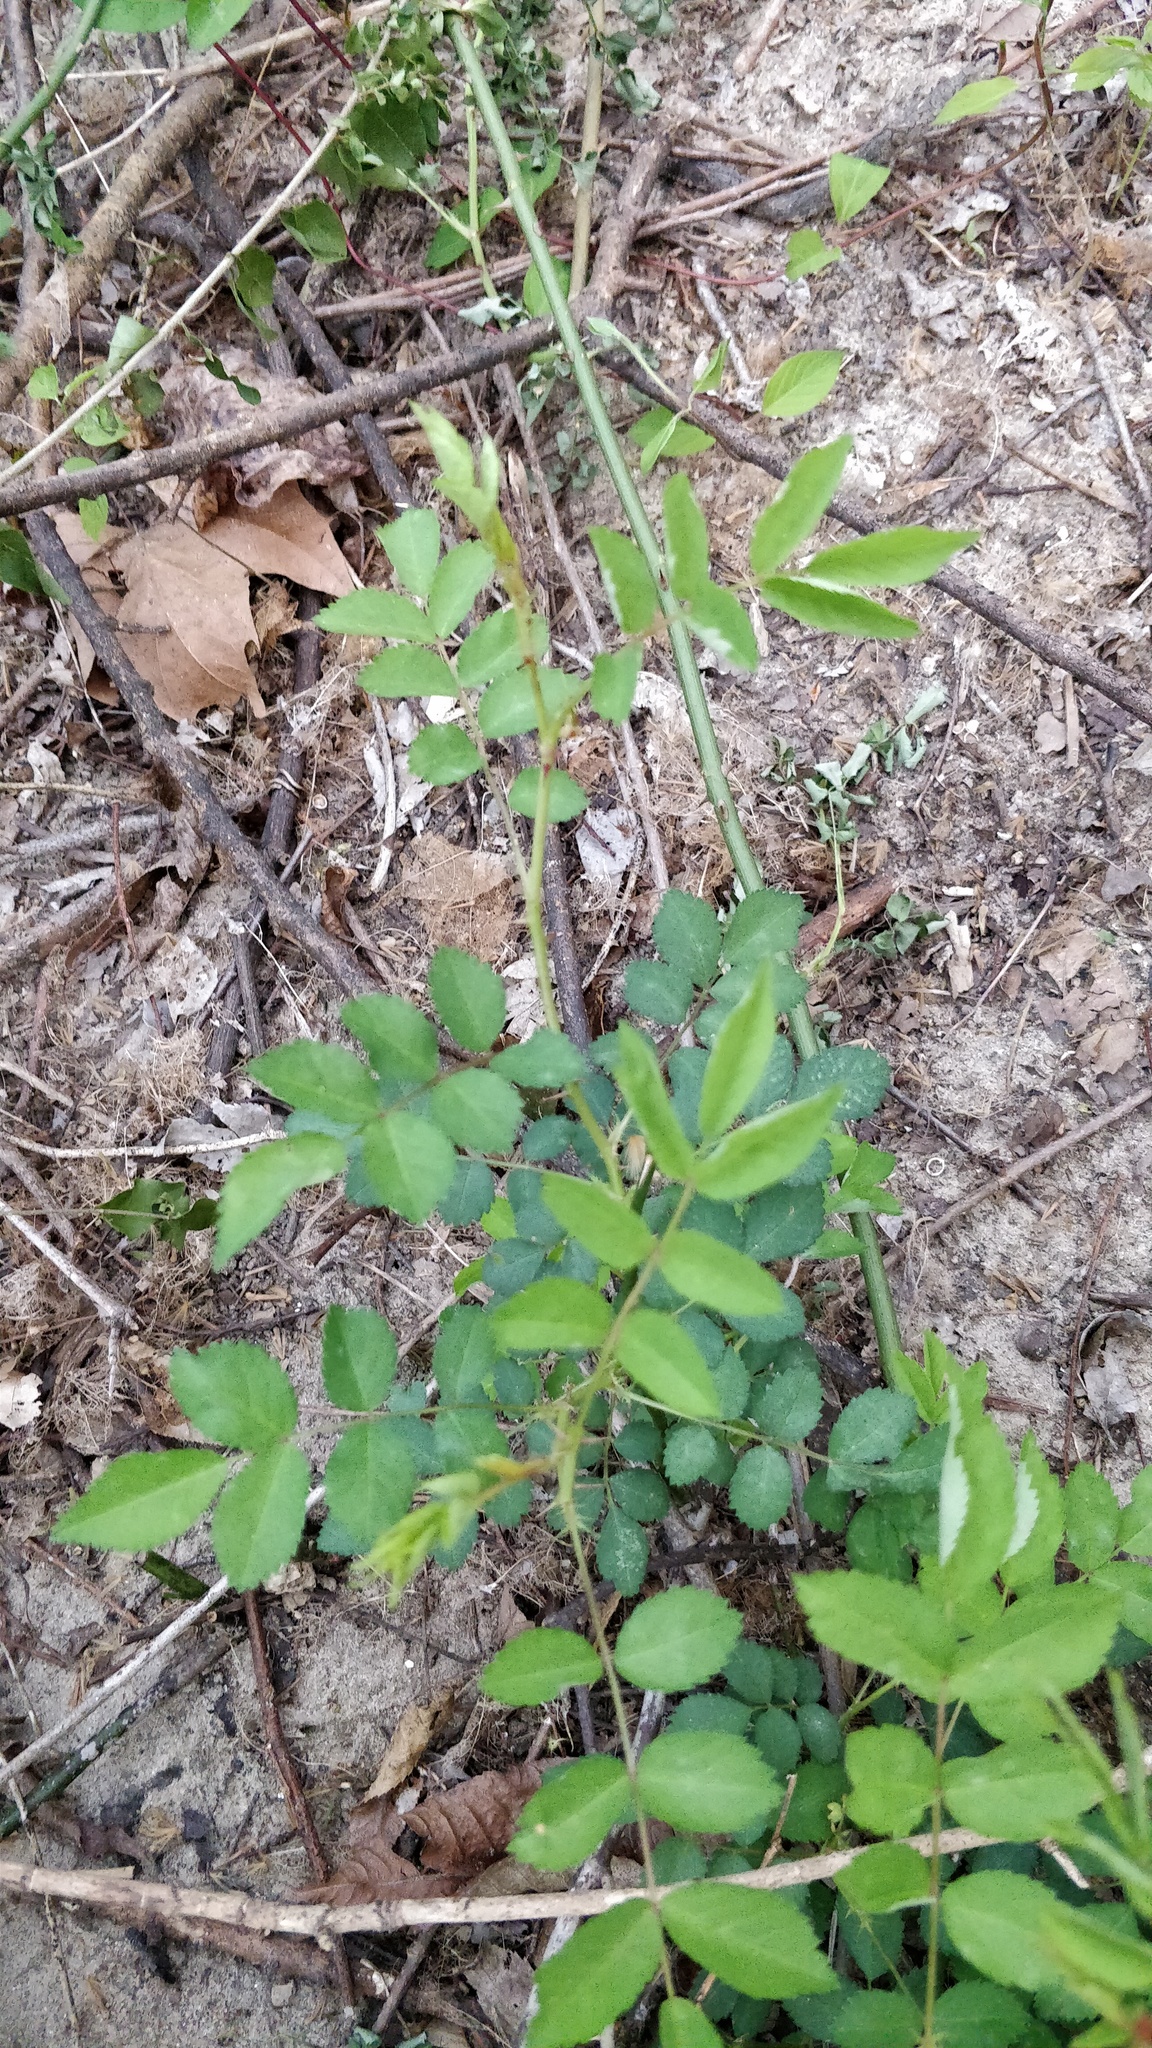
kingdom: Plantae
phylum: Tracheophyta
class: Magnoliopsida
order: Rosales
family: Rosaceae
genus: Rosa
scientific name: Rosa multiflora
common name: Multiflora rose
